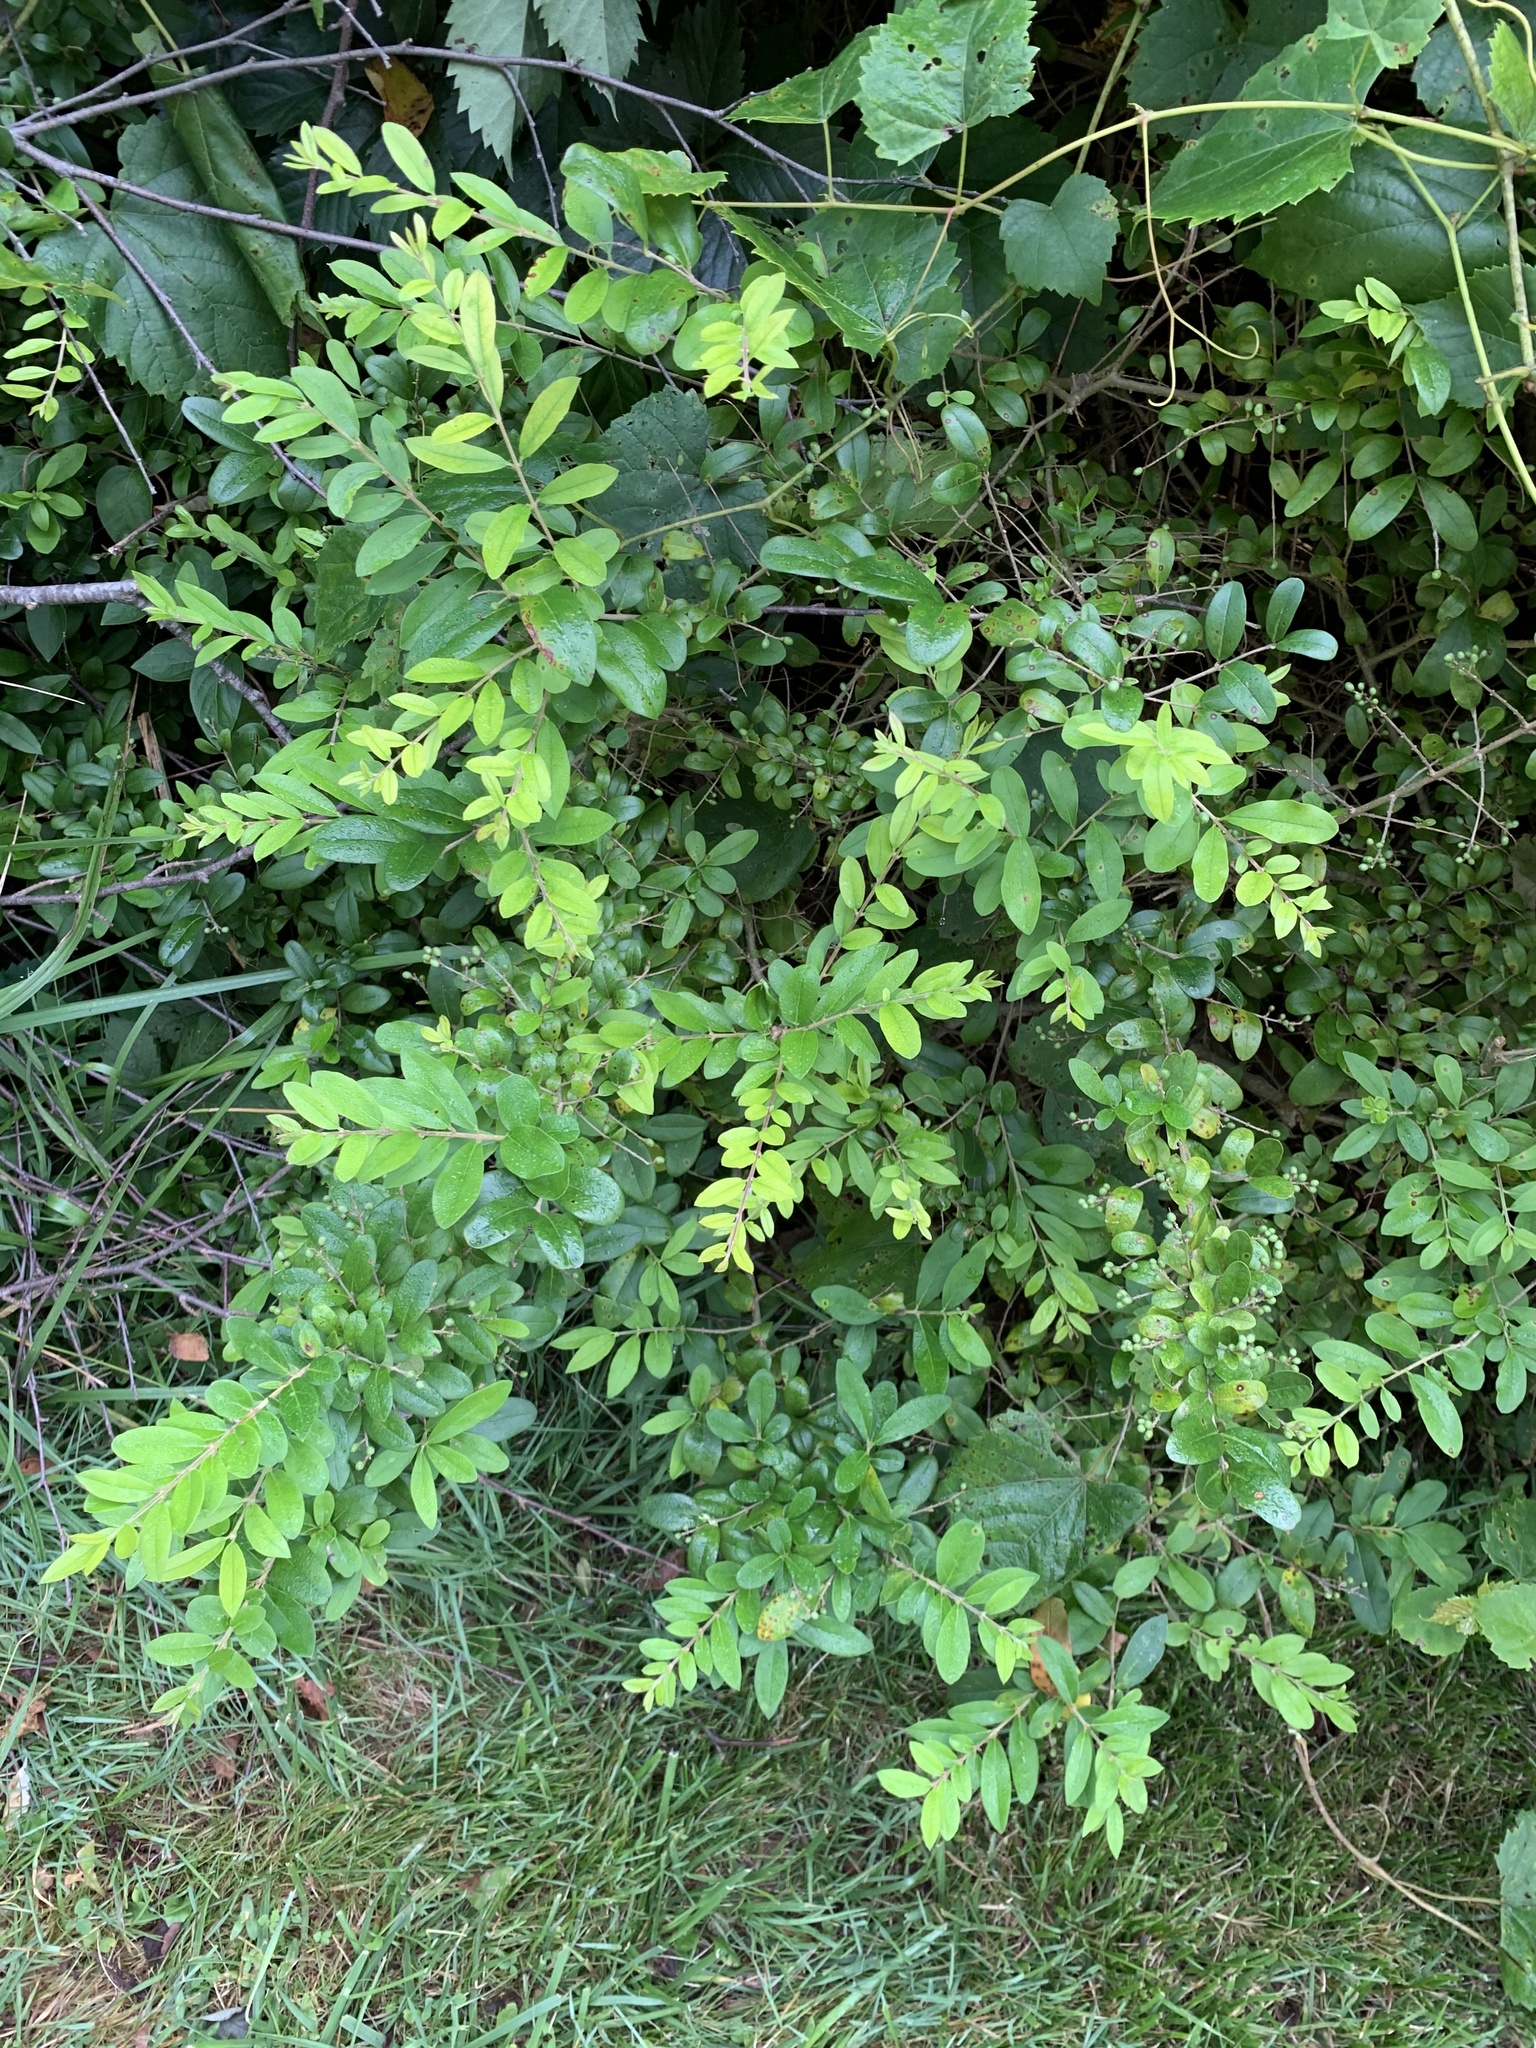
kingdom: Plantae
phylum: Tracheophyta
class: Magnoliopsida
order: Lamiales
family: Oleaceae
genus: Ligustrum
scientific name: Ligustrum obtusifolium
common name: Border privet
